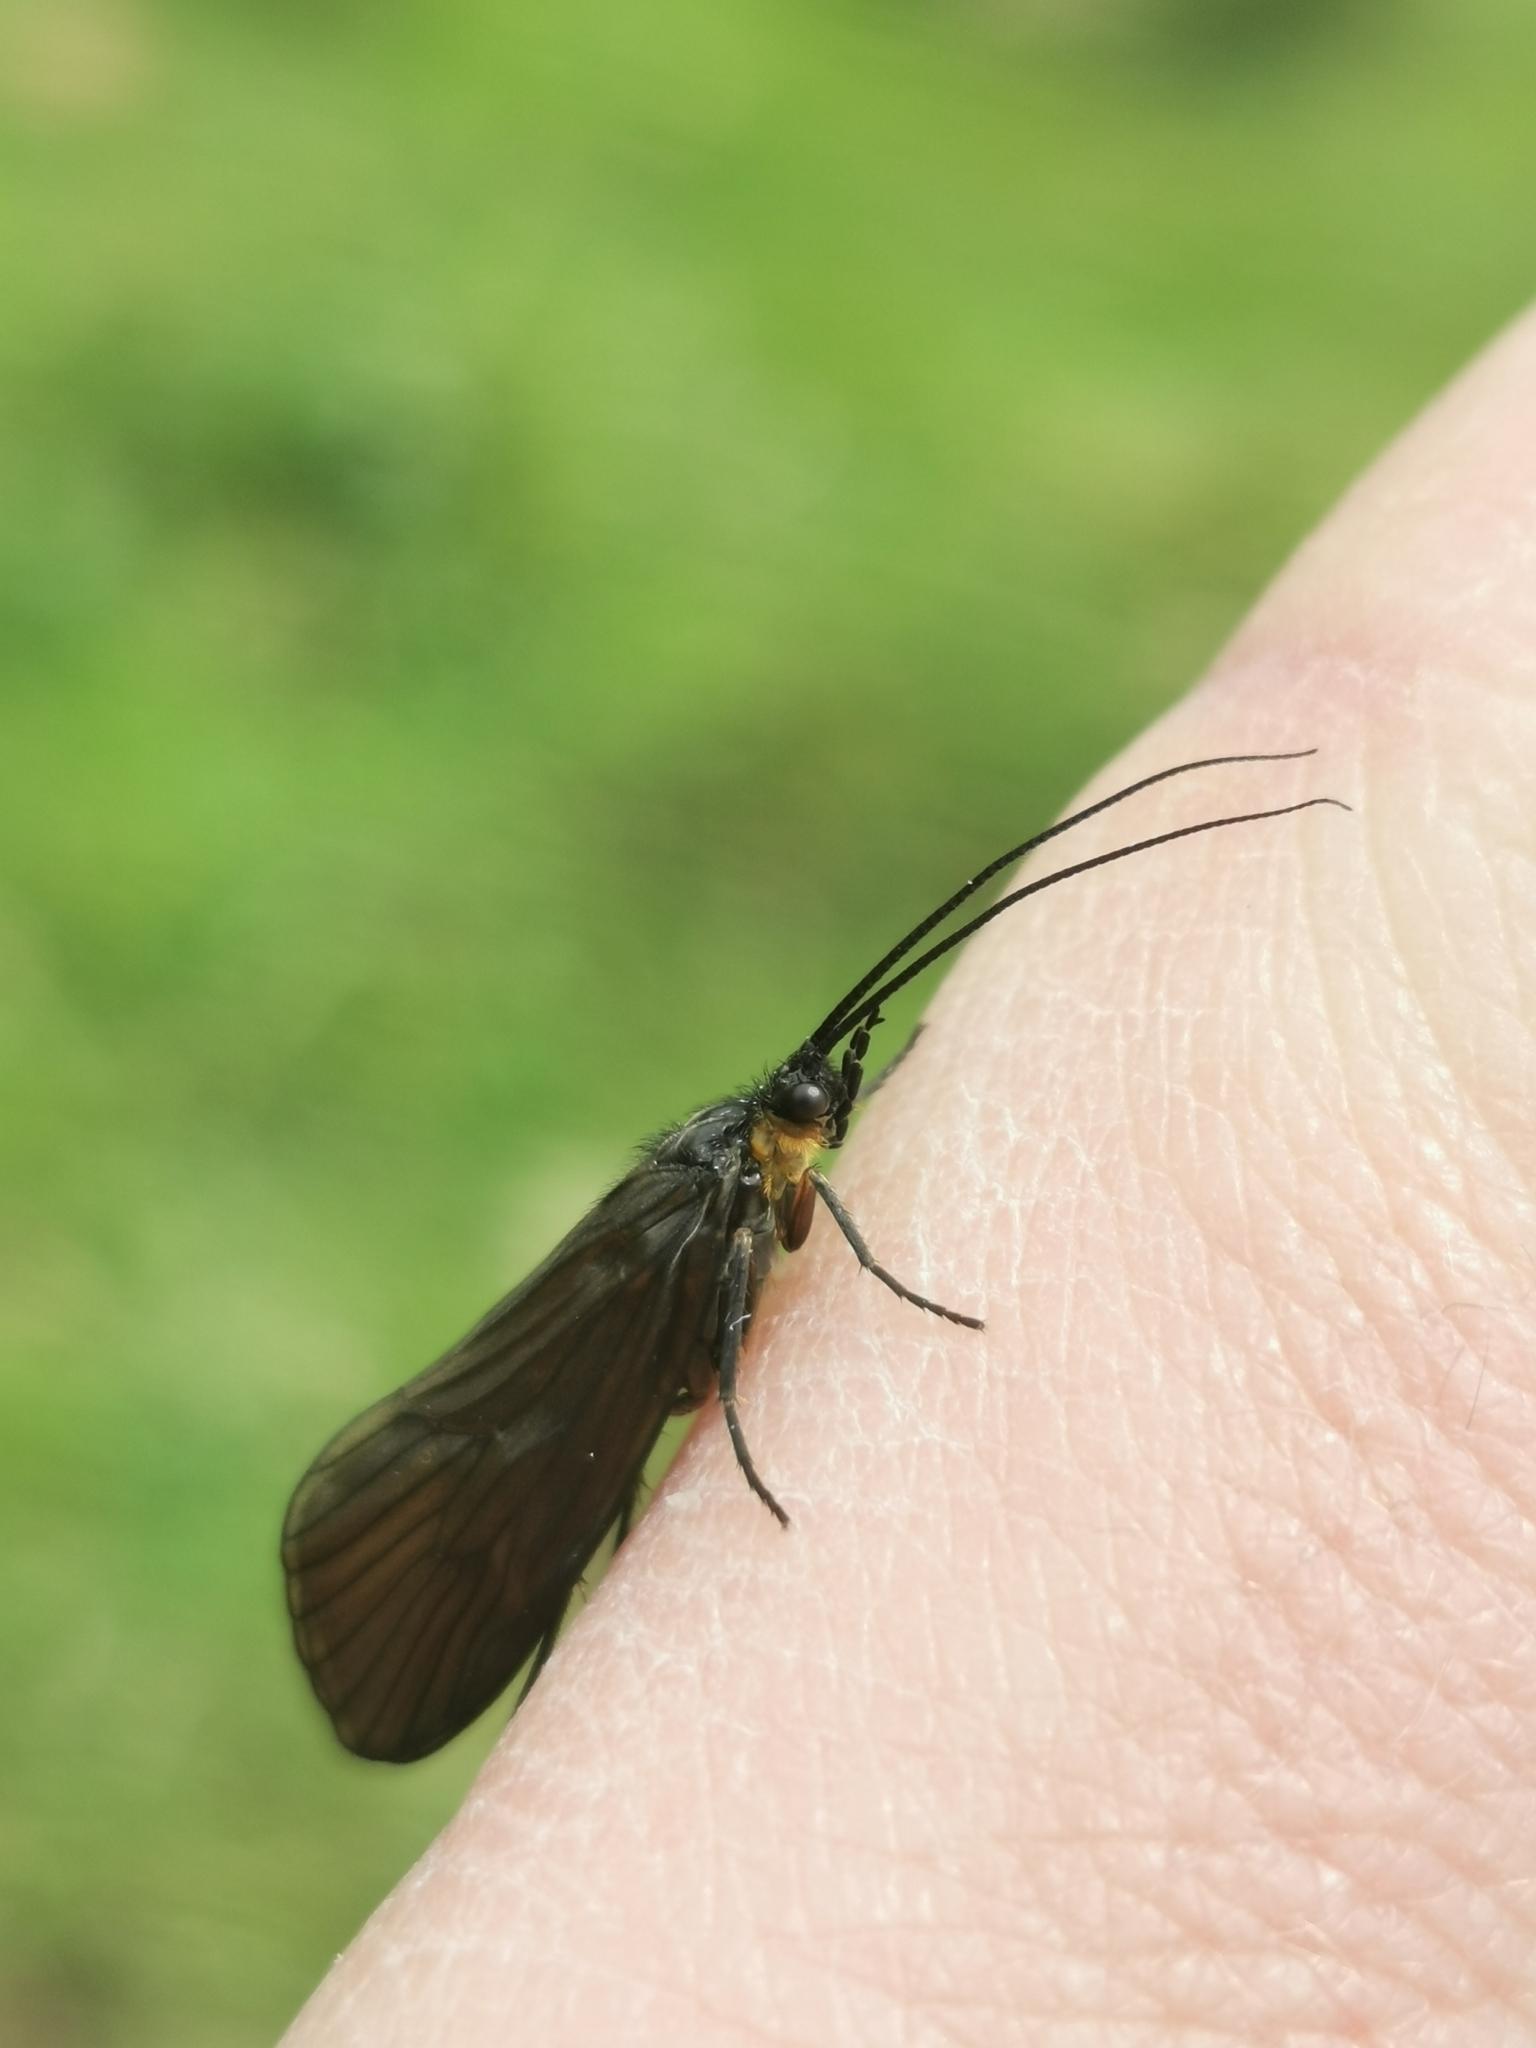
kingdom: Animalia
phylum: Arthropoda
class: Insecta
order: Trichoptera
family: Phryganeidae
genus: Oligotricha
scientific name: Oligotricha striata
